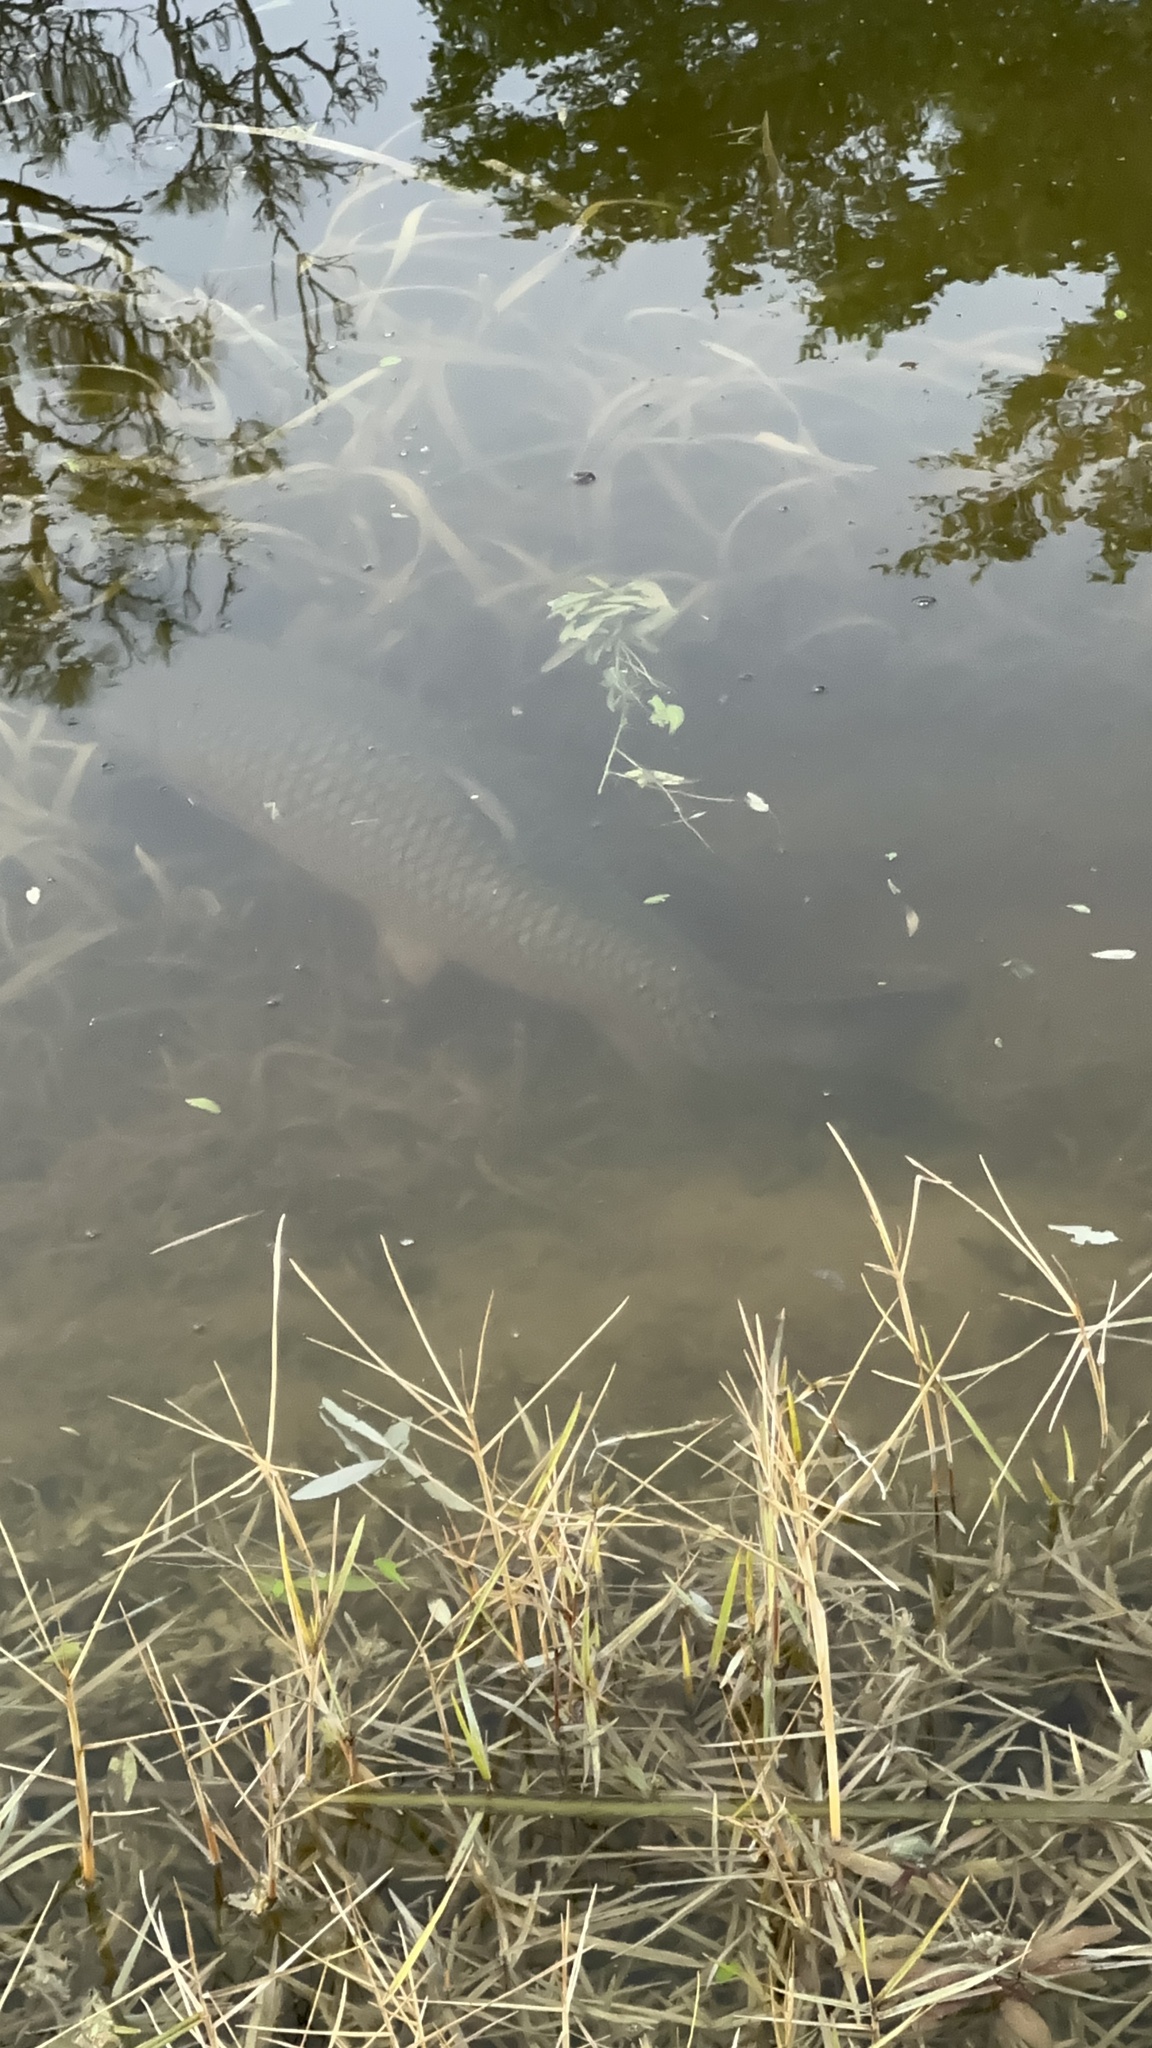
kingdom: Animalia
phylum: Chordata
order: Cypriniformes
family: Cyprinidae
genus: Ctenopharyngodon
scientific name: Ctenopharyngodon idella
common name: Grass carp
